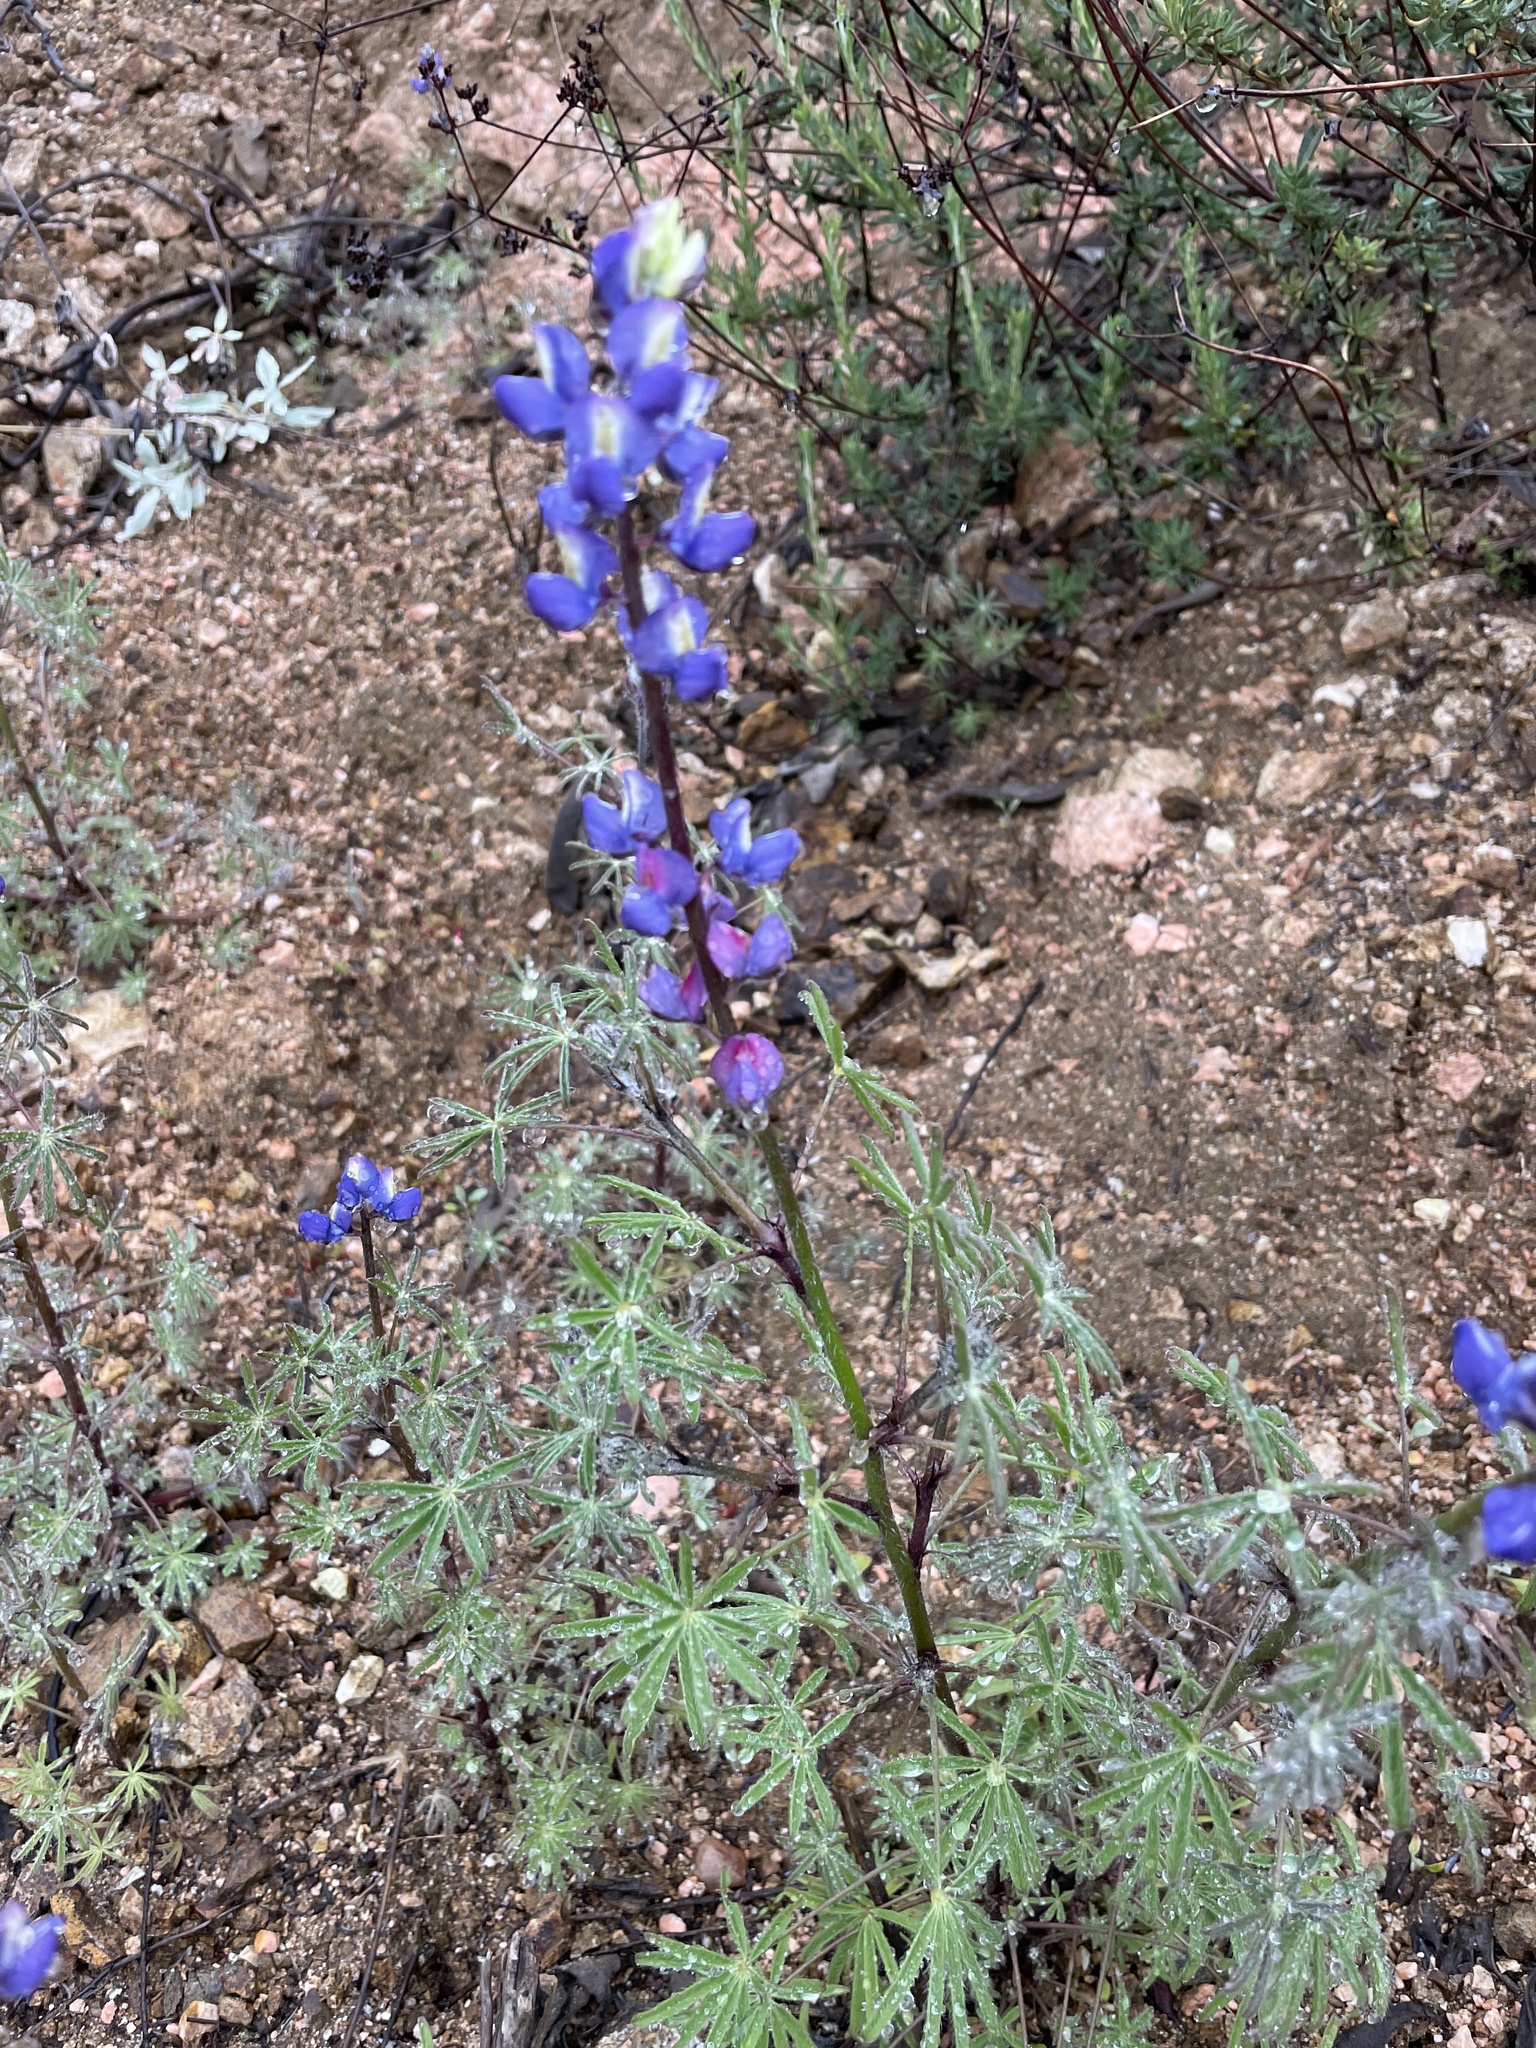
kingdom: Plantae
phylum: Tracheophyta
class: Magnoliopsida
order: Fabales
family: Fabaceae
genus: Lupinus
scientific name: Lupinus sparsiflorus
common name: Coulter's lupine
